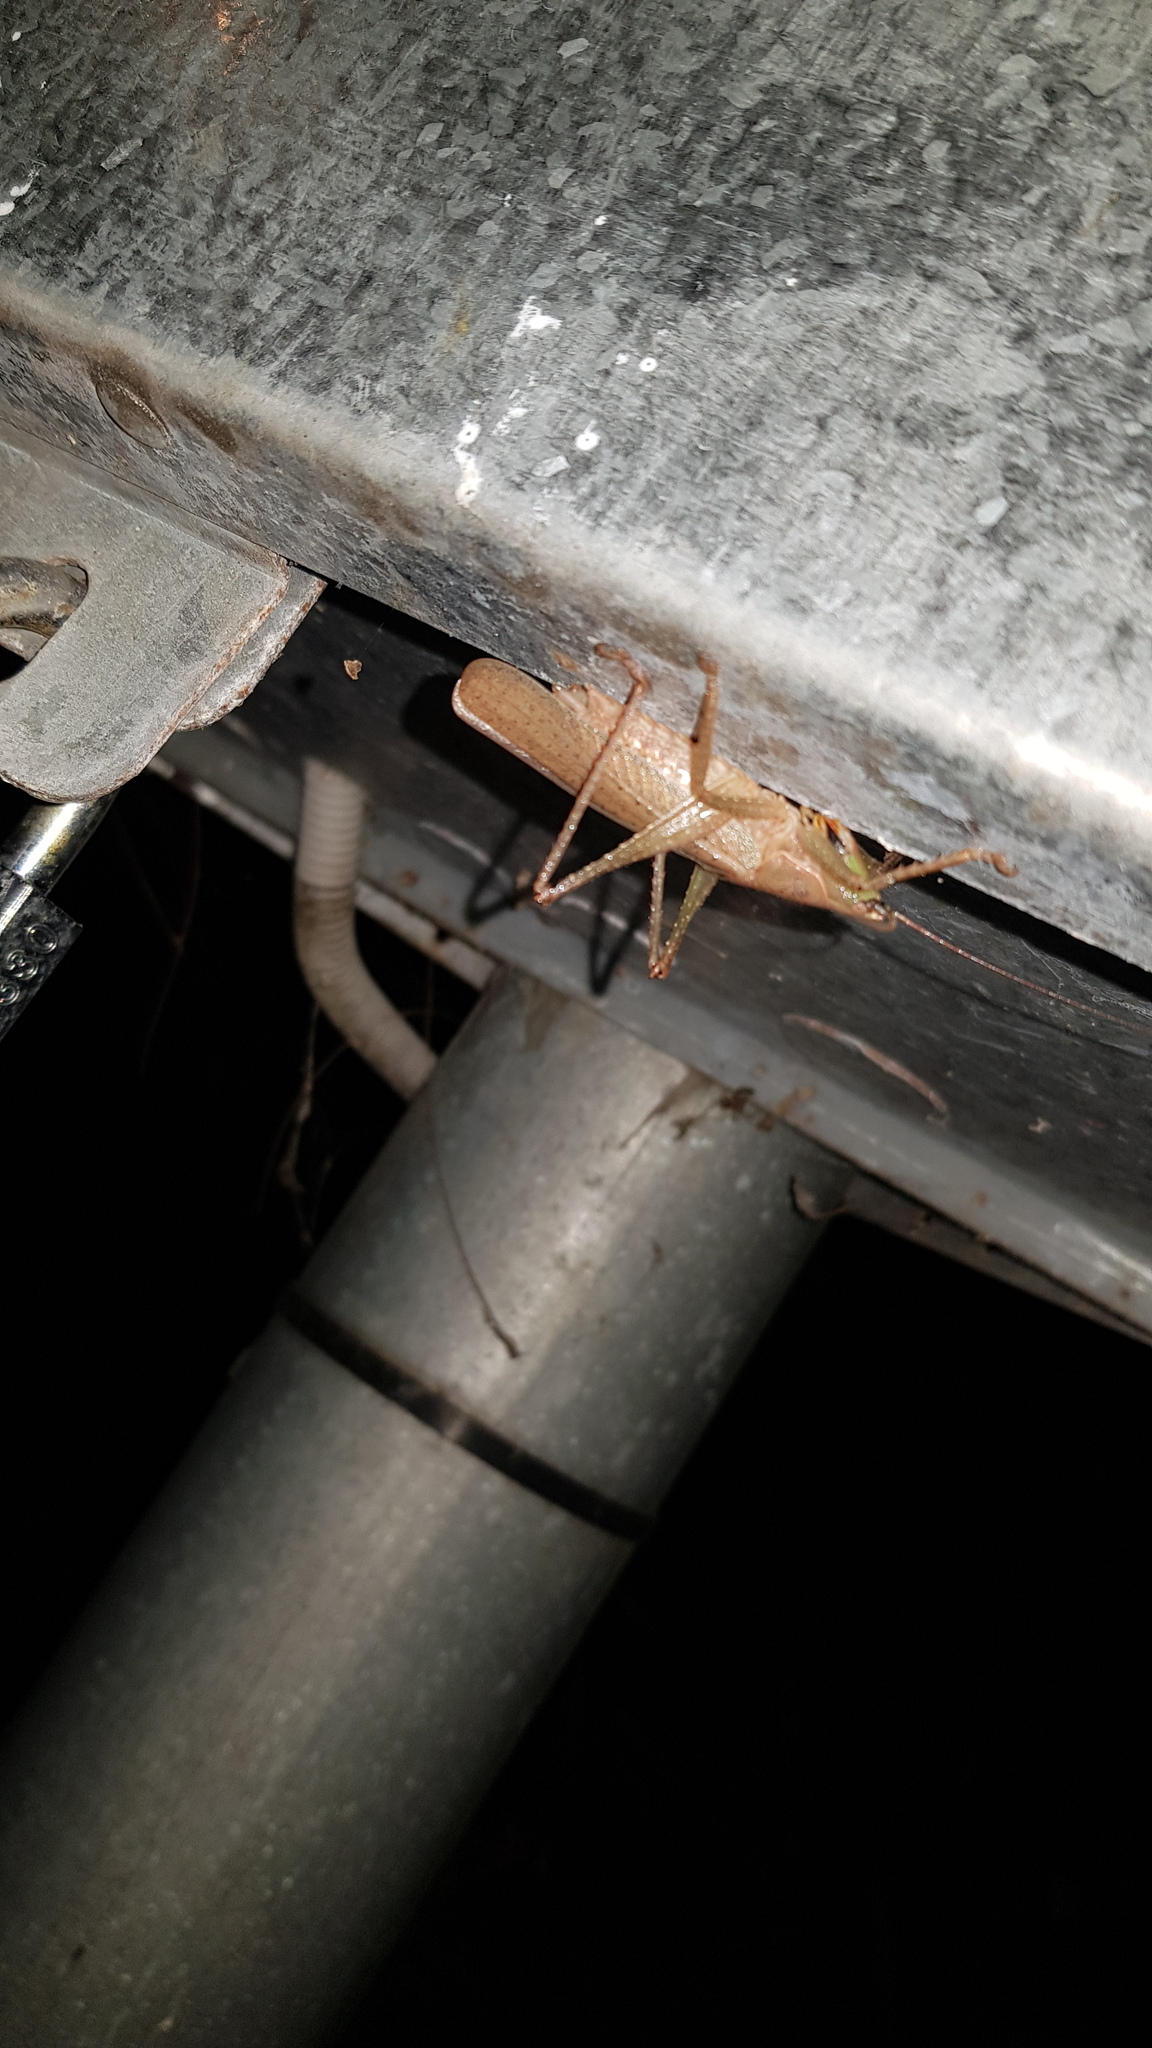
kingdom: Animalia
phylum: Arthropoda
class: Insecta
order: Orthoptera
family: Tettigoniidae
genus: Austrosalomona
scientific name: Austrosalomona falcata
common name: Olive-green coastal katydid
